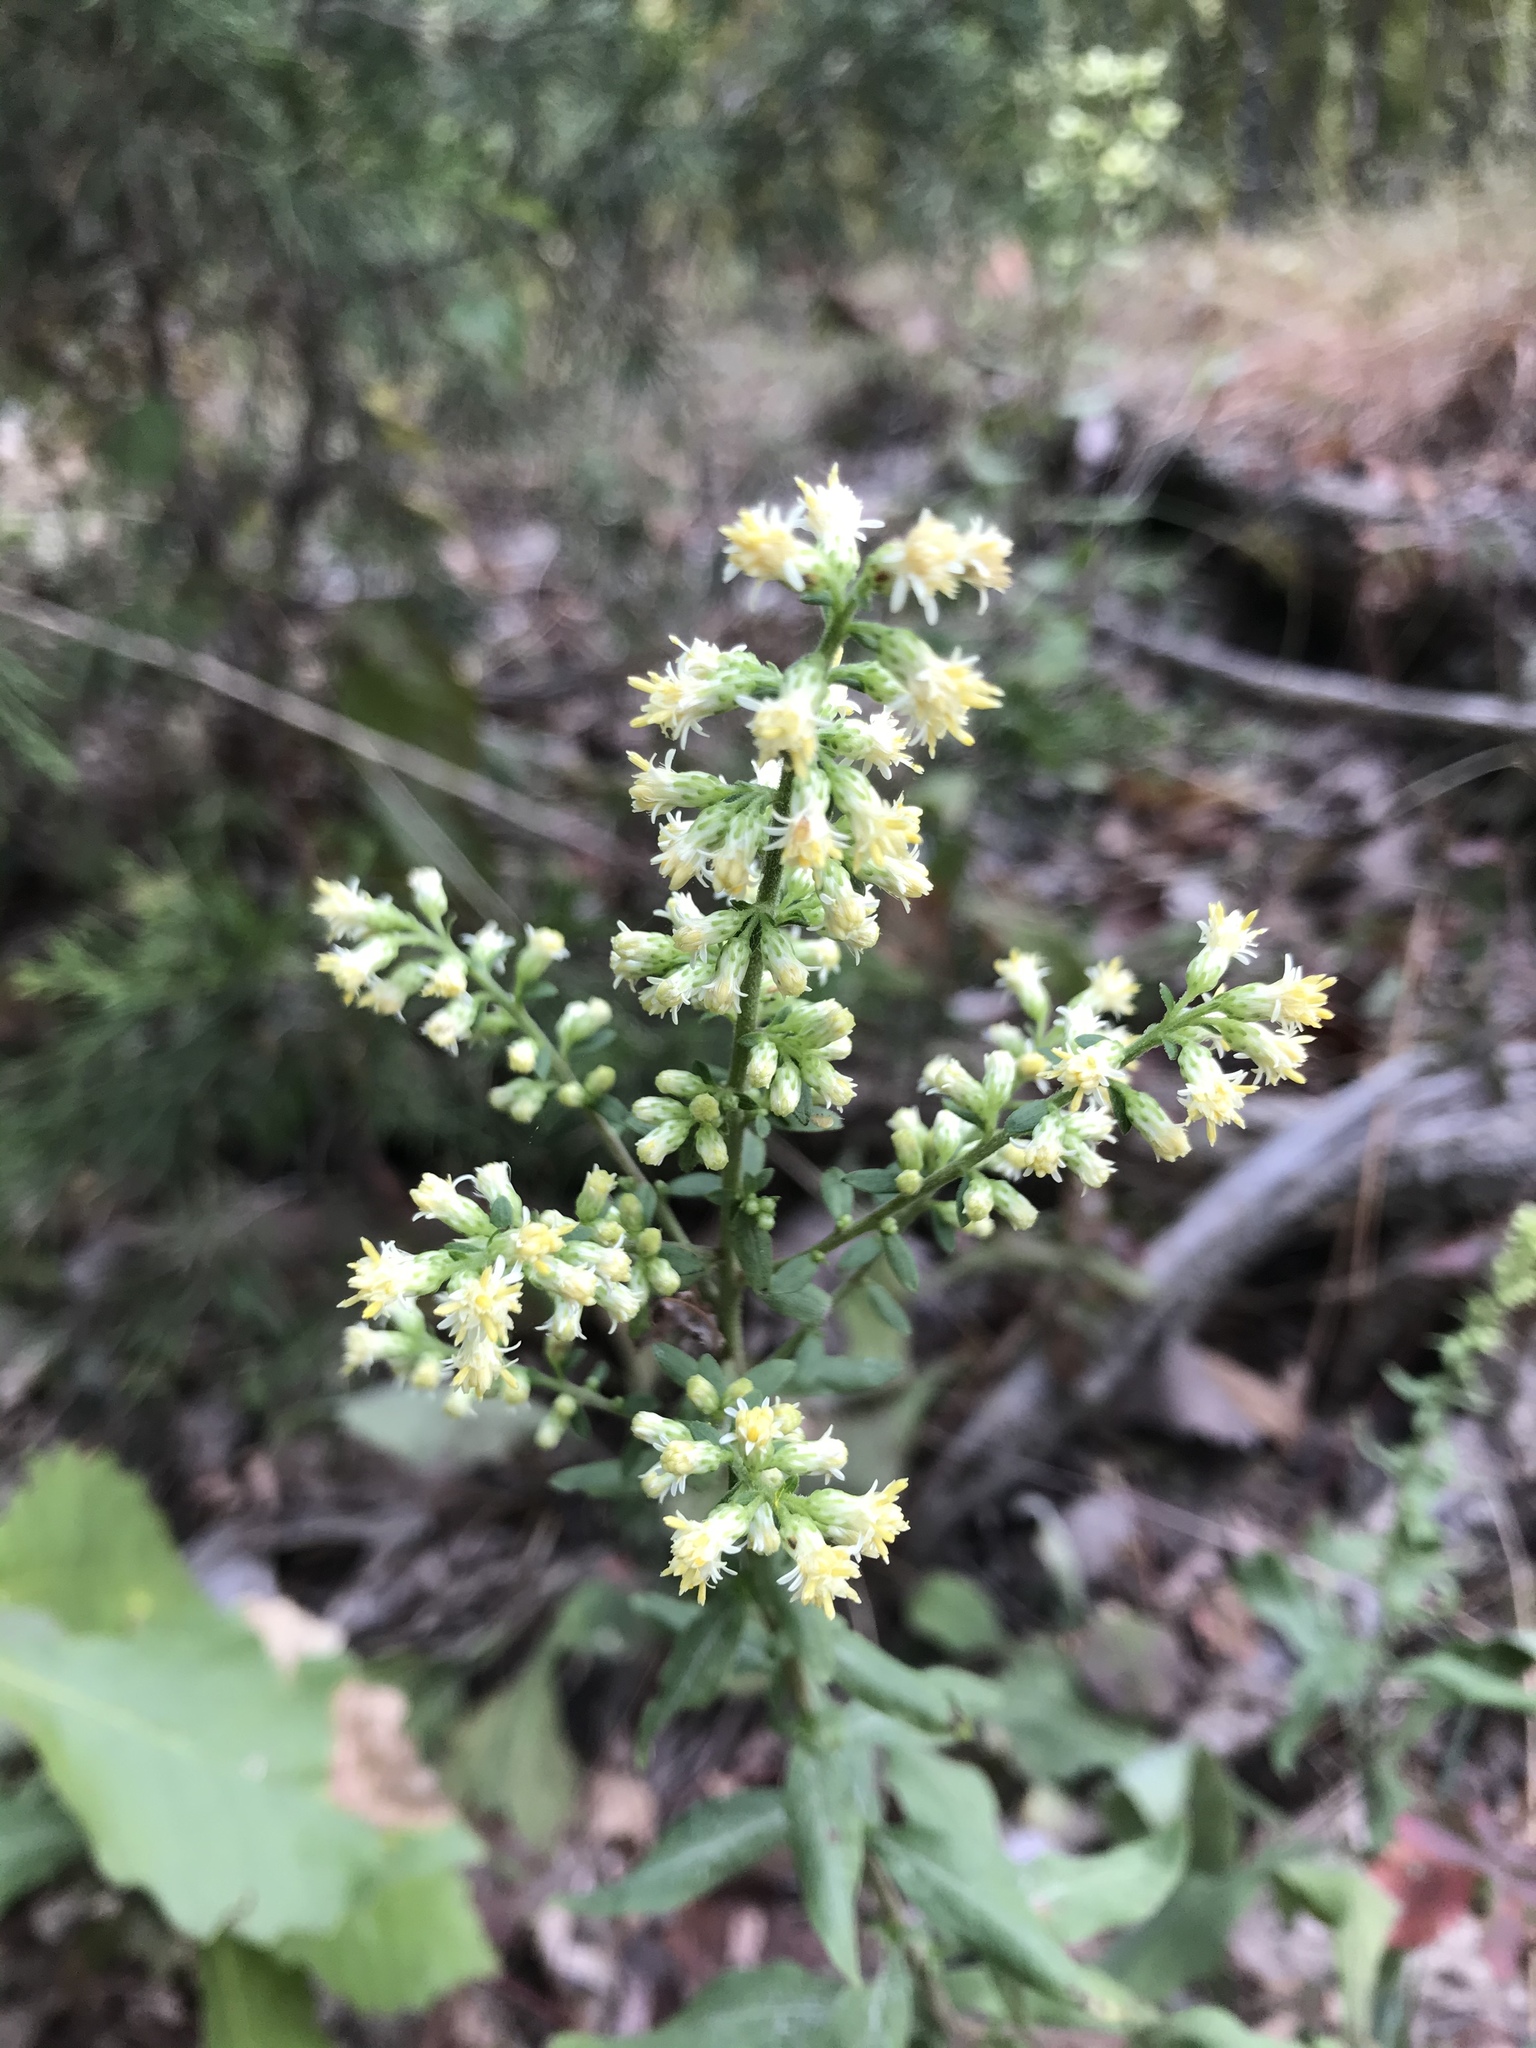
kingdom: Plantae
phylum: Tracheophyta
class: Magnoliopsida
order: Asterales
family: Asteraceae
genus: Solidago
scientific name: Solidago bicolor
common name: Silverrod
